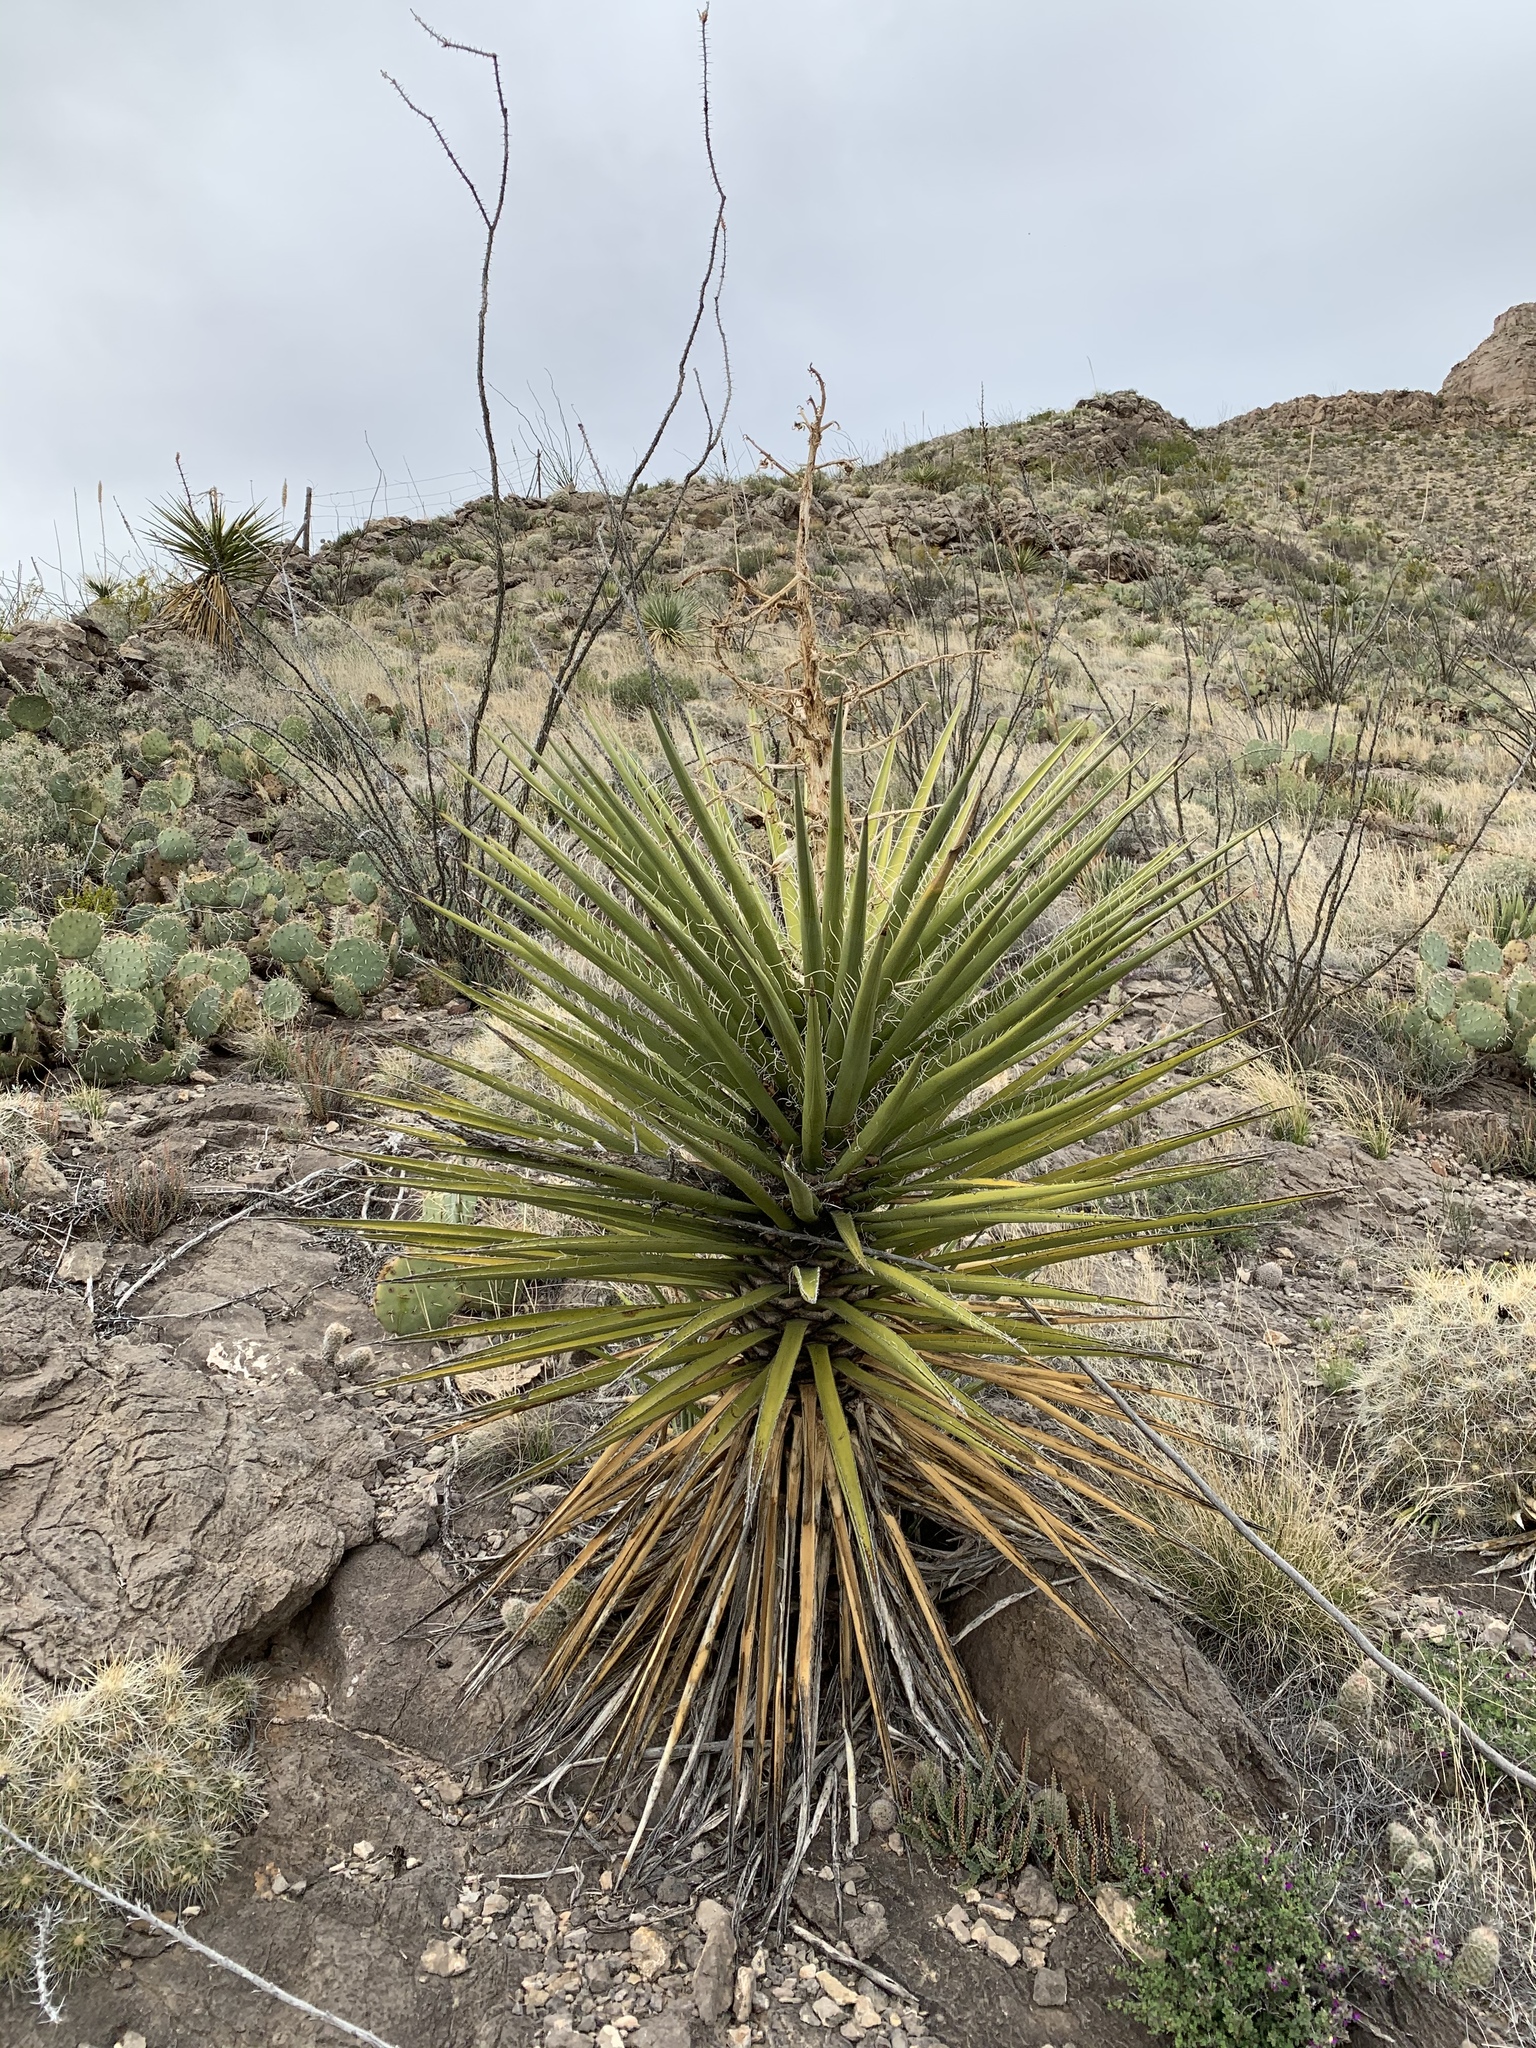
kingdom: Plantae
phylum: Tracheophyta
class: Liliopsida
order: Asparagales
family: Asparagaceae
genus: Yucca
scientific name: Yucca treculiana
